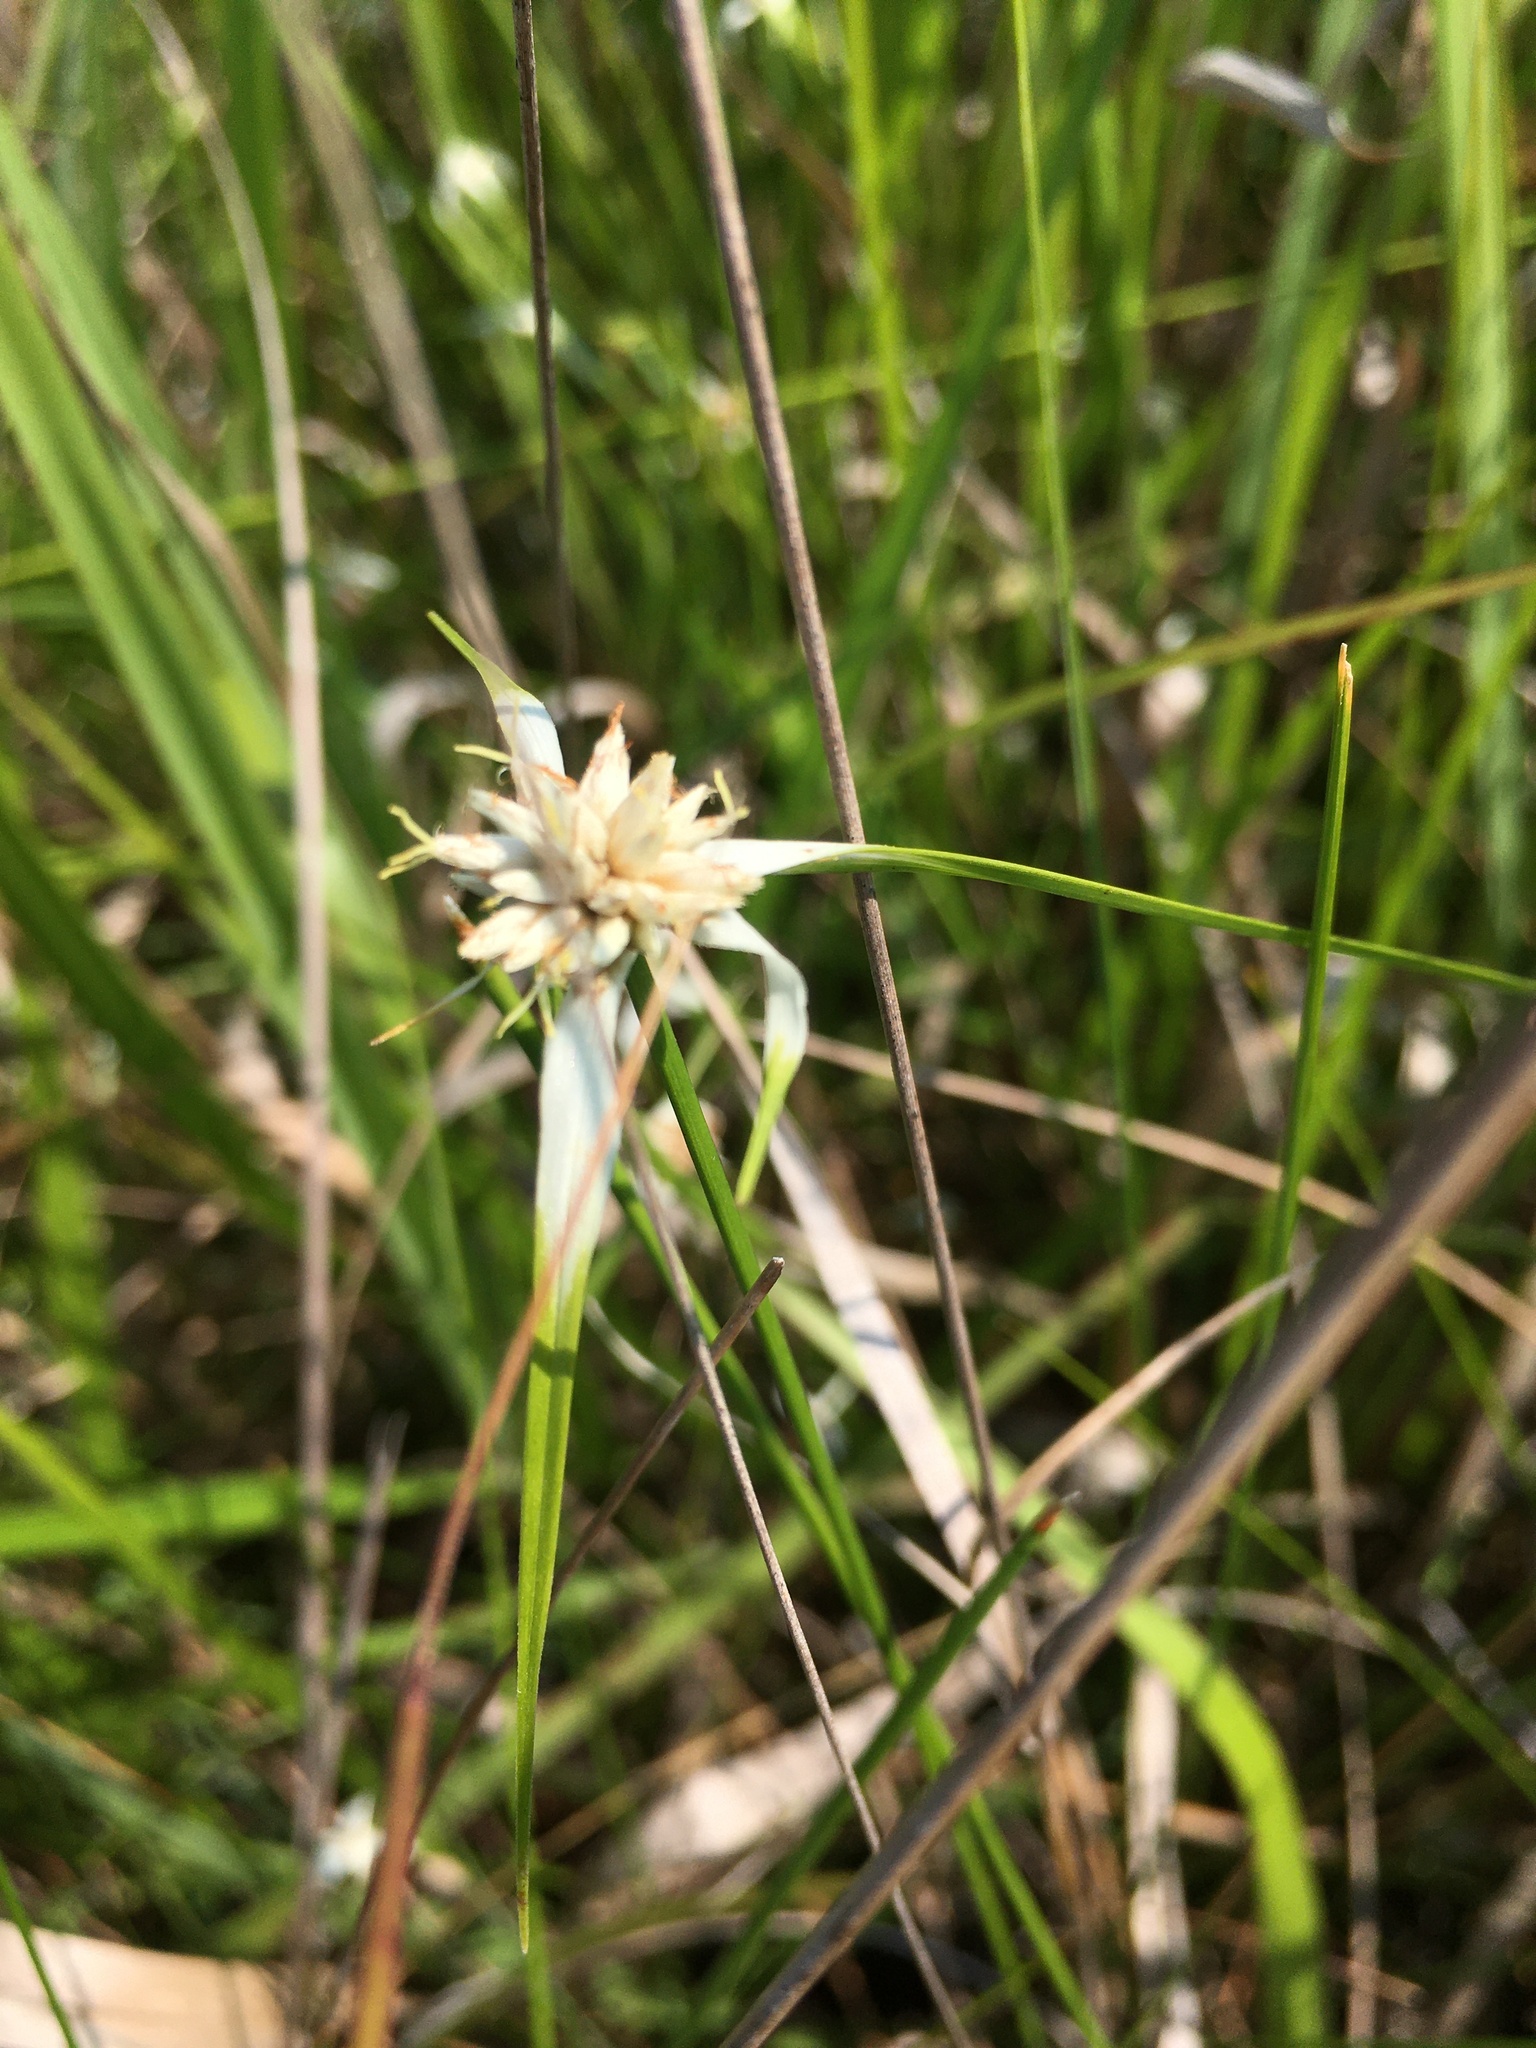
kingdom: Plantae
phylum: Tracheophyta
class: Liliopsida
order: Poales
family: Cyperaceae
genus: Rhynchospora
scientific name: Rhynchospora colorata
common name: Star sedge
